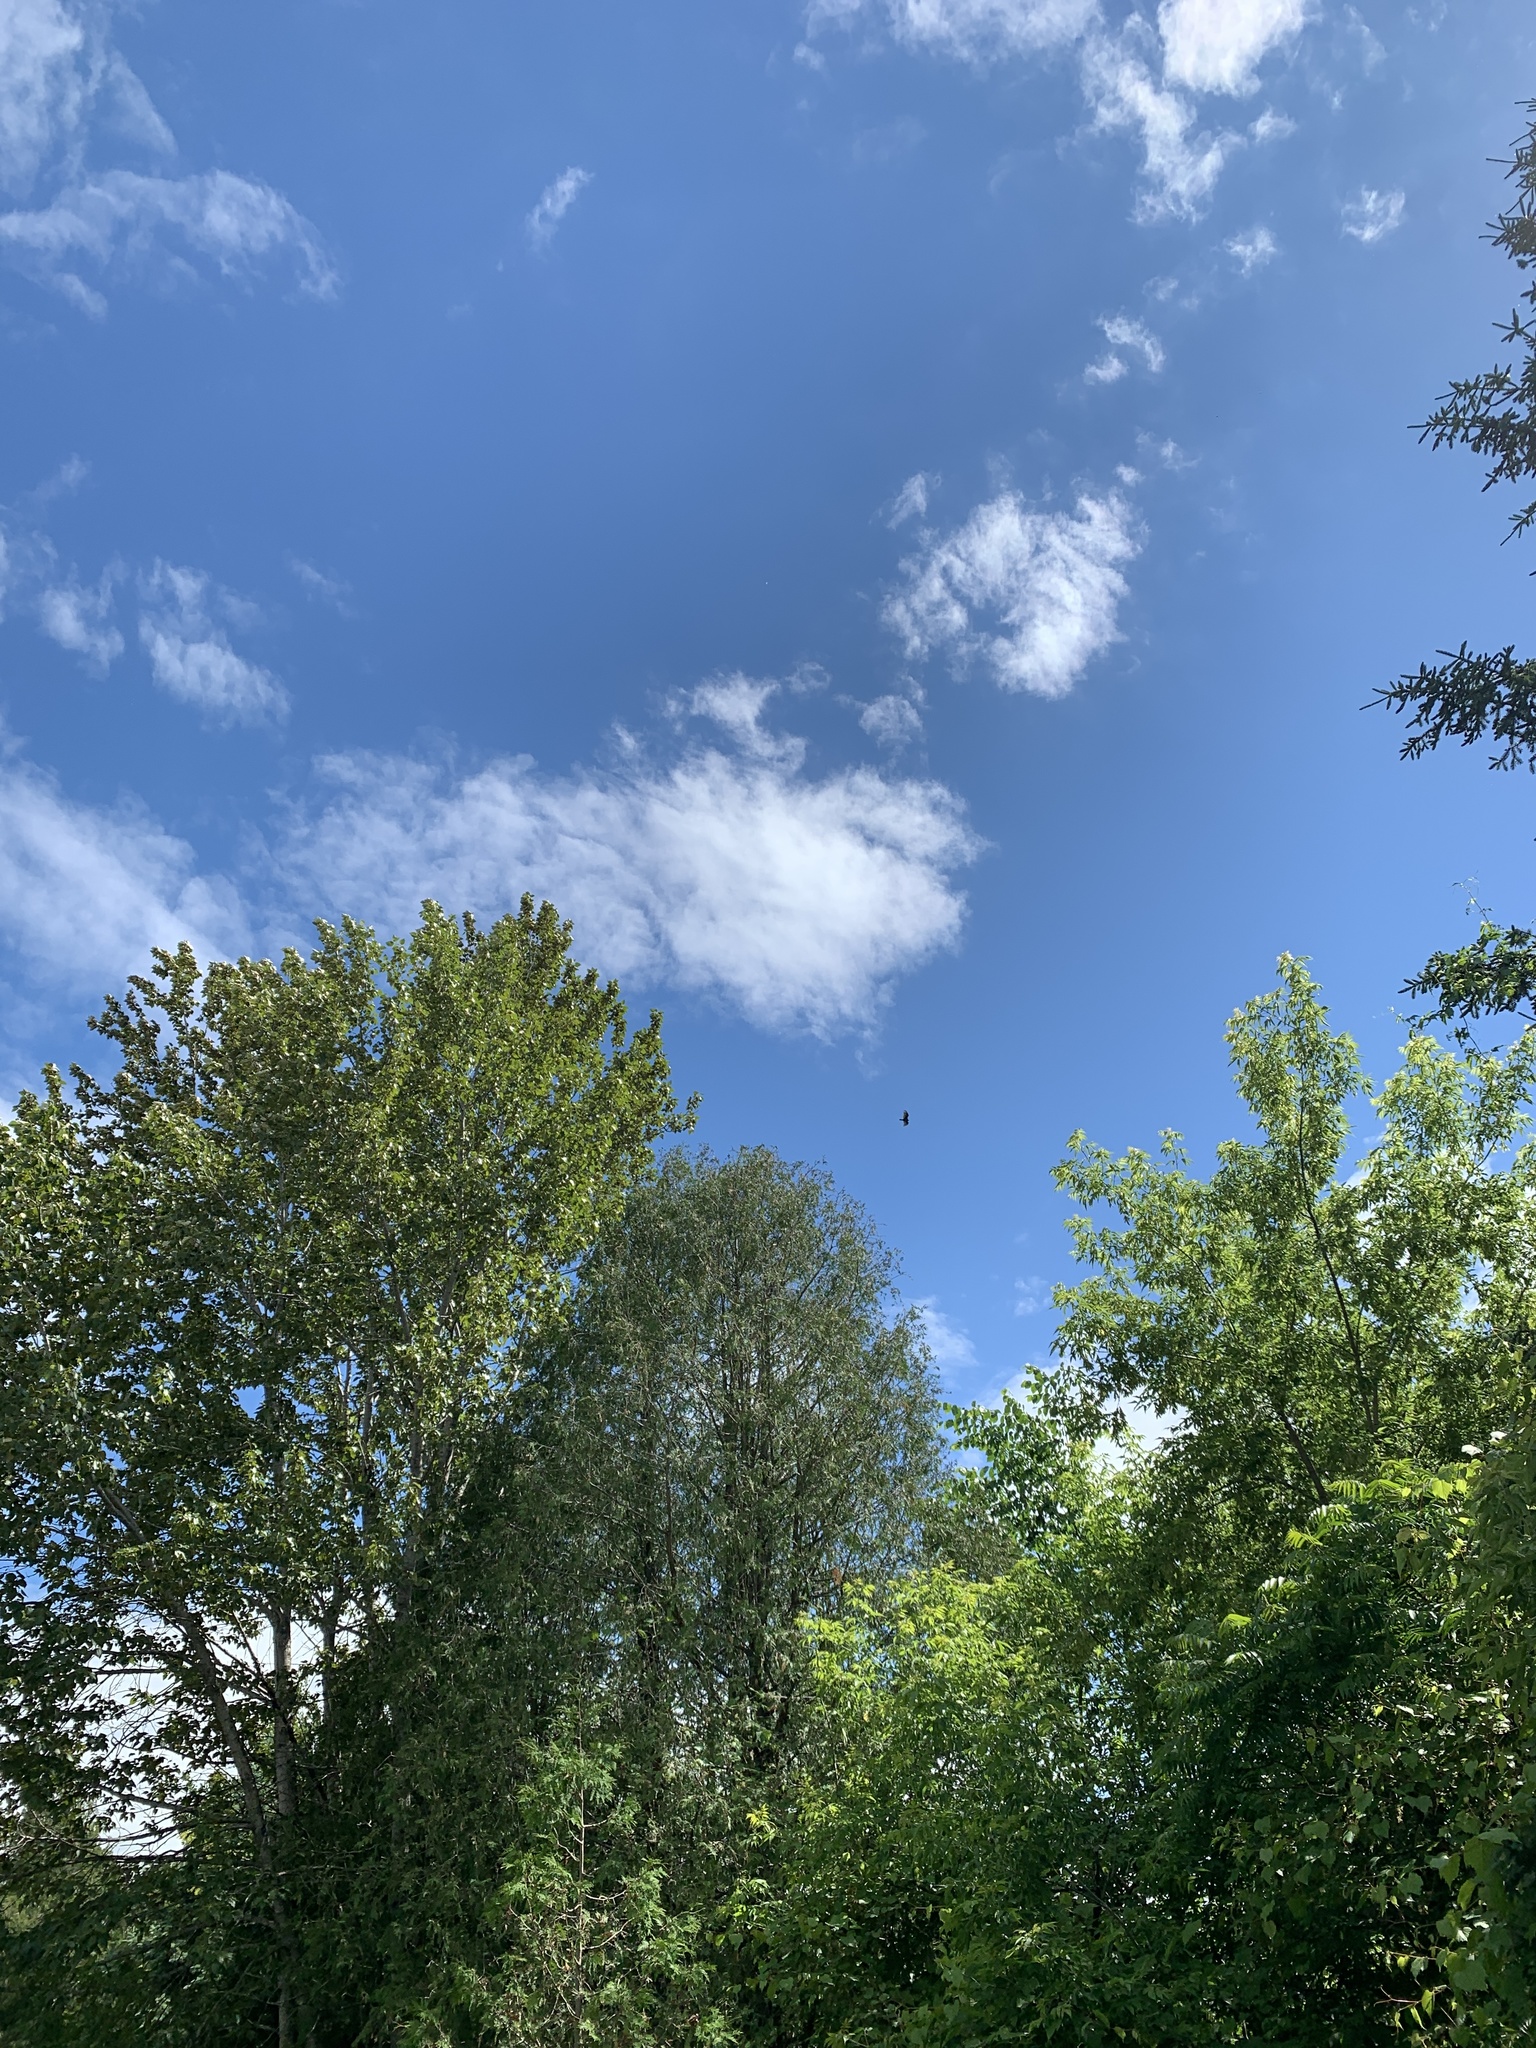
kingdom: Animalia
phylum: Chordata
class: Aves
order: Accipitriformes
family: Cathartidae
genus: Cathartes
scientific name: Cathartes aura
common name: Turkey vulture
